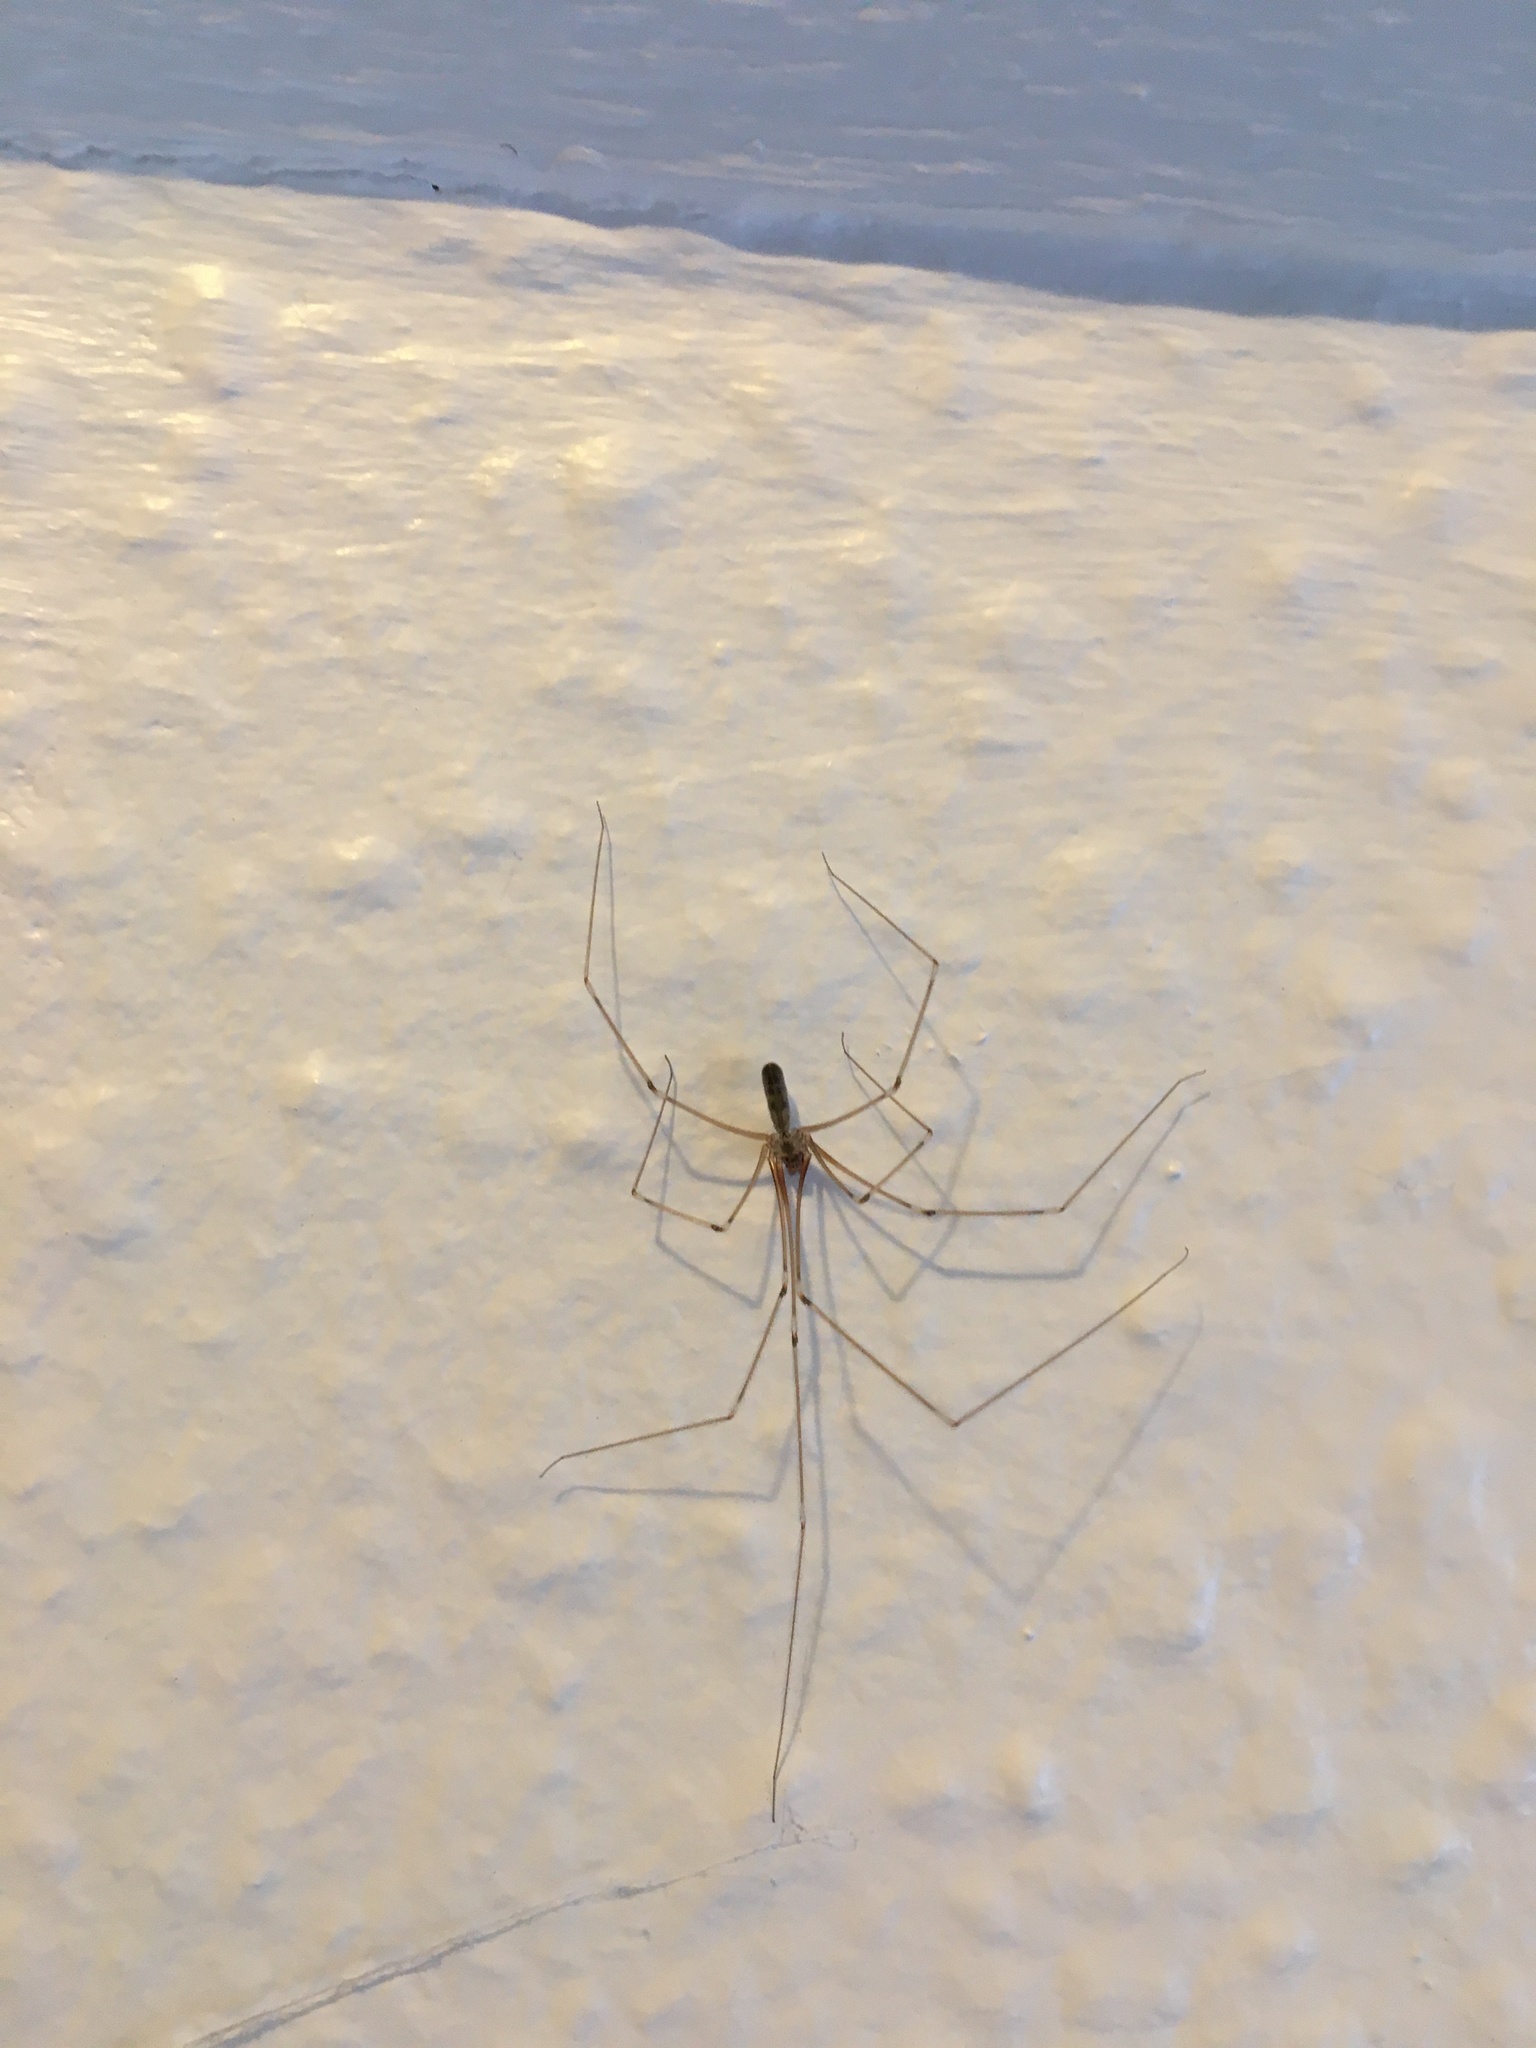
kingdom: Animalia
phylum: Arthropoda
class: Arachnida
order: Araneae
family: Pholcidae
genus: Pholcus
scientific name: Pholcus phalangioides
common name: Longbodied cellar spider
